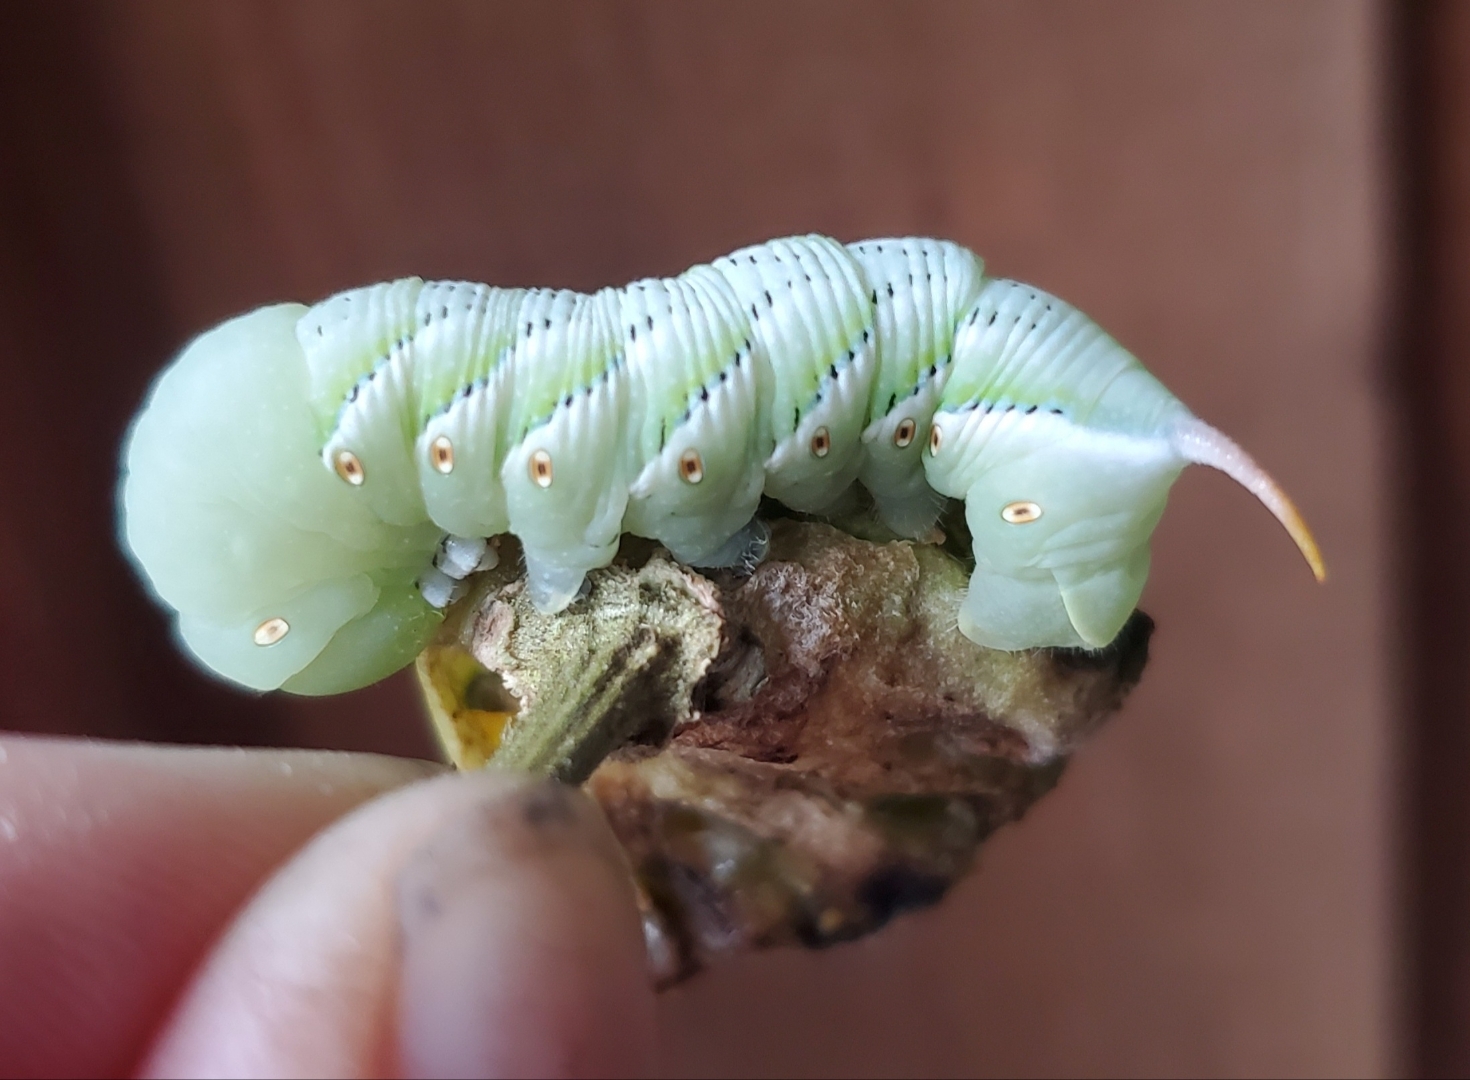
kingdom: Animalia
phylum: Arthropoda
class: Insecta
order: Lepidoptera
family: Sphingidae
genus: Manduca
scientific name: Manduca sexta
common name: Carolina sphinx
